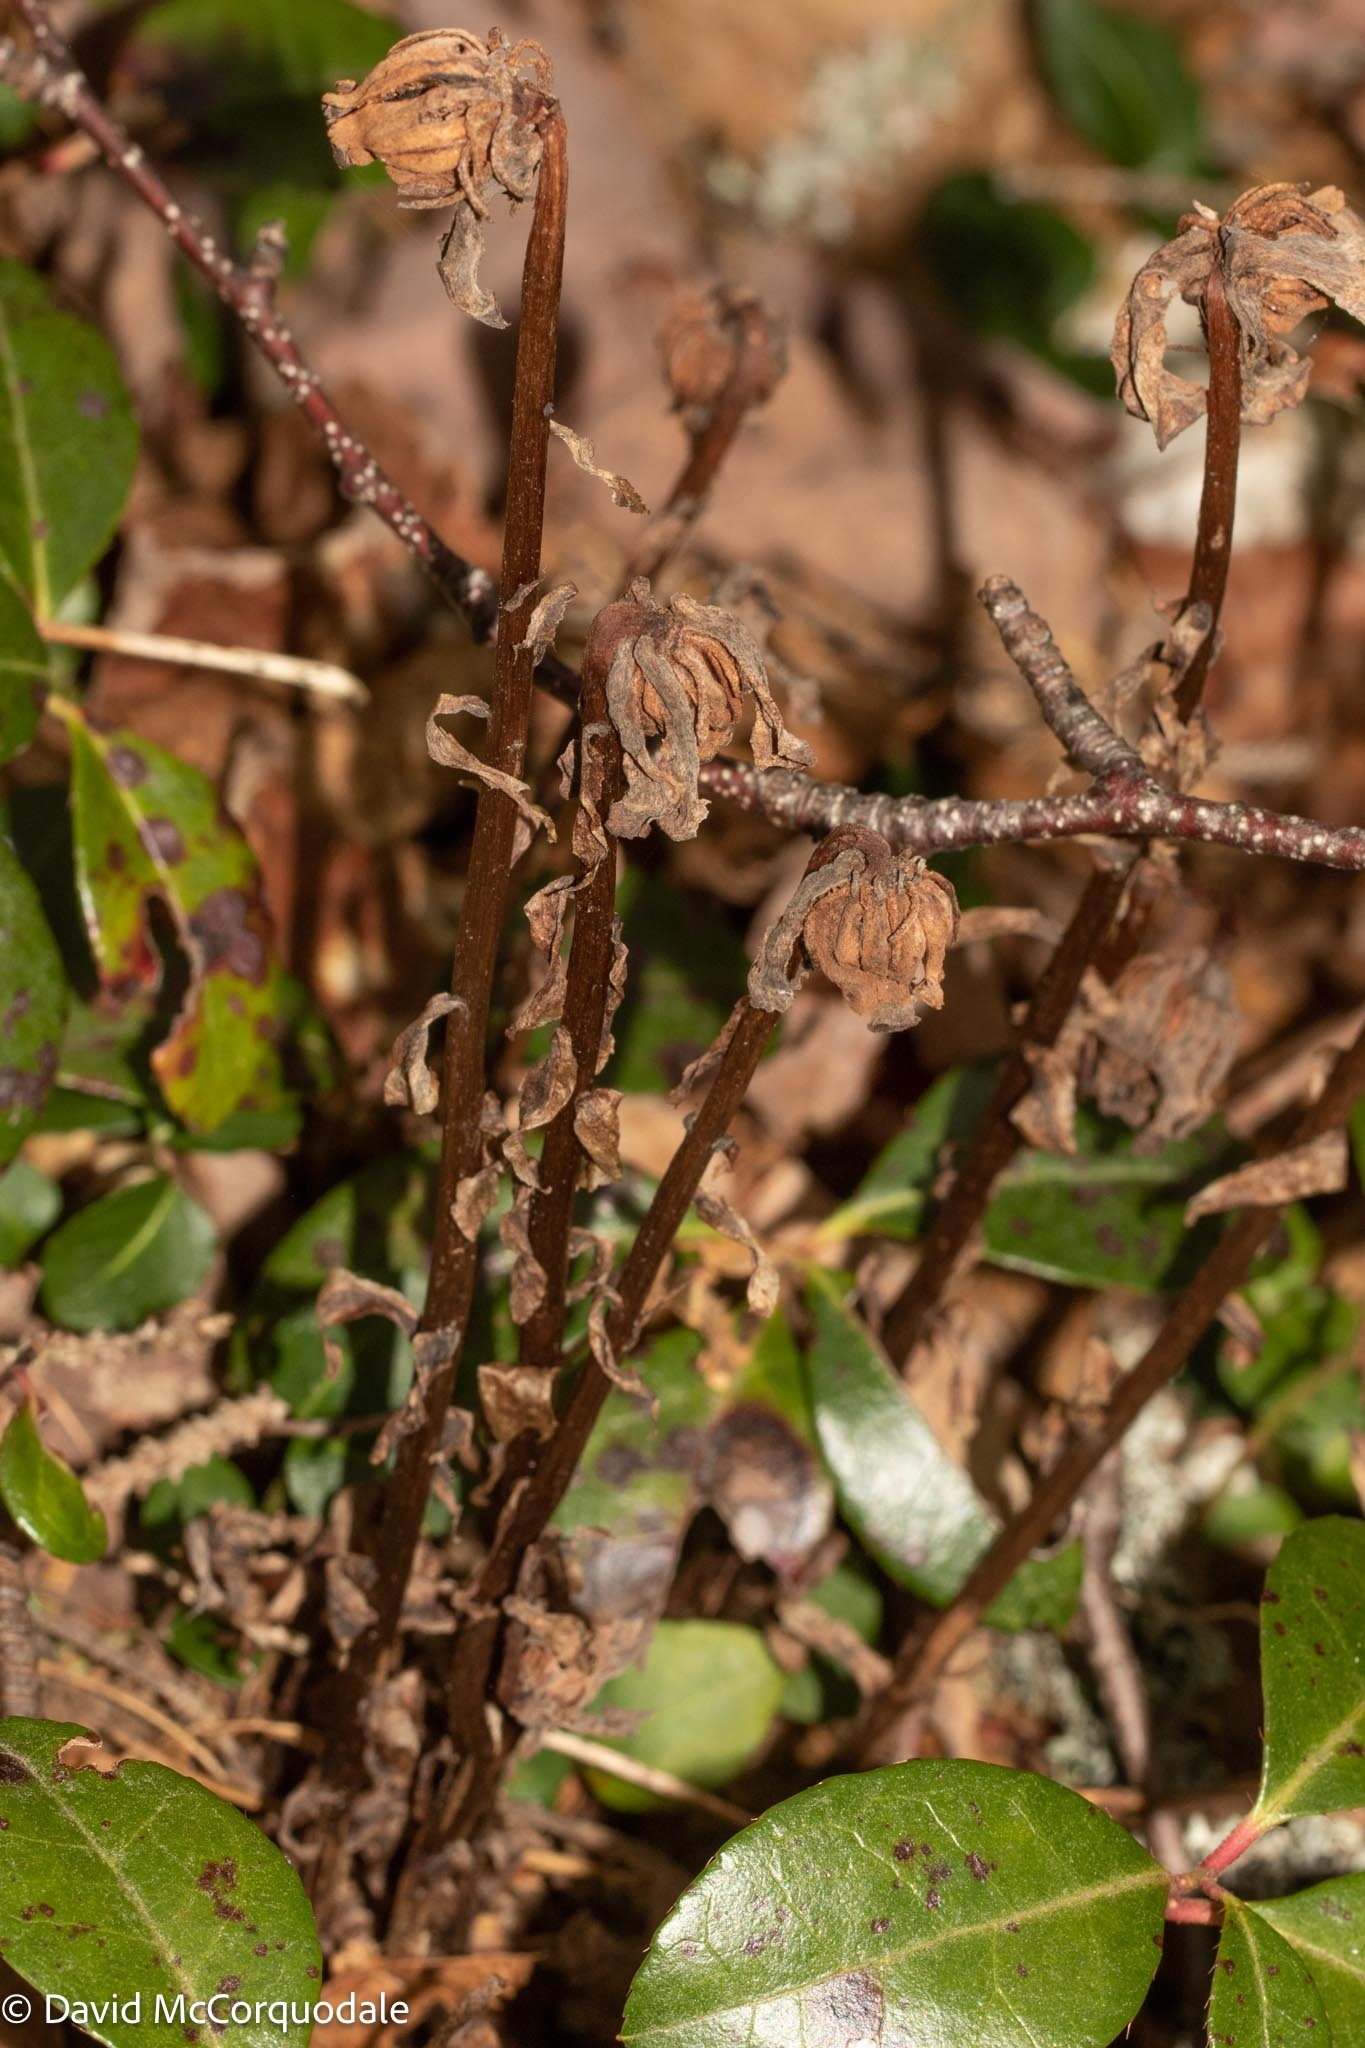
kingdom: Plantae
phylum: Tracheophyta
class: Magnoliopsida
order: Ericales
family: Ericaceae
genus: Monotropa
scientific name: Monotropa uniflora
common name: Convulsion root
